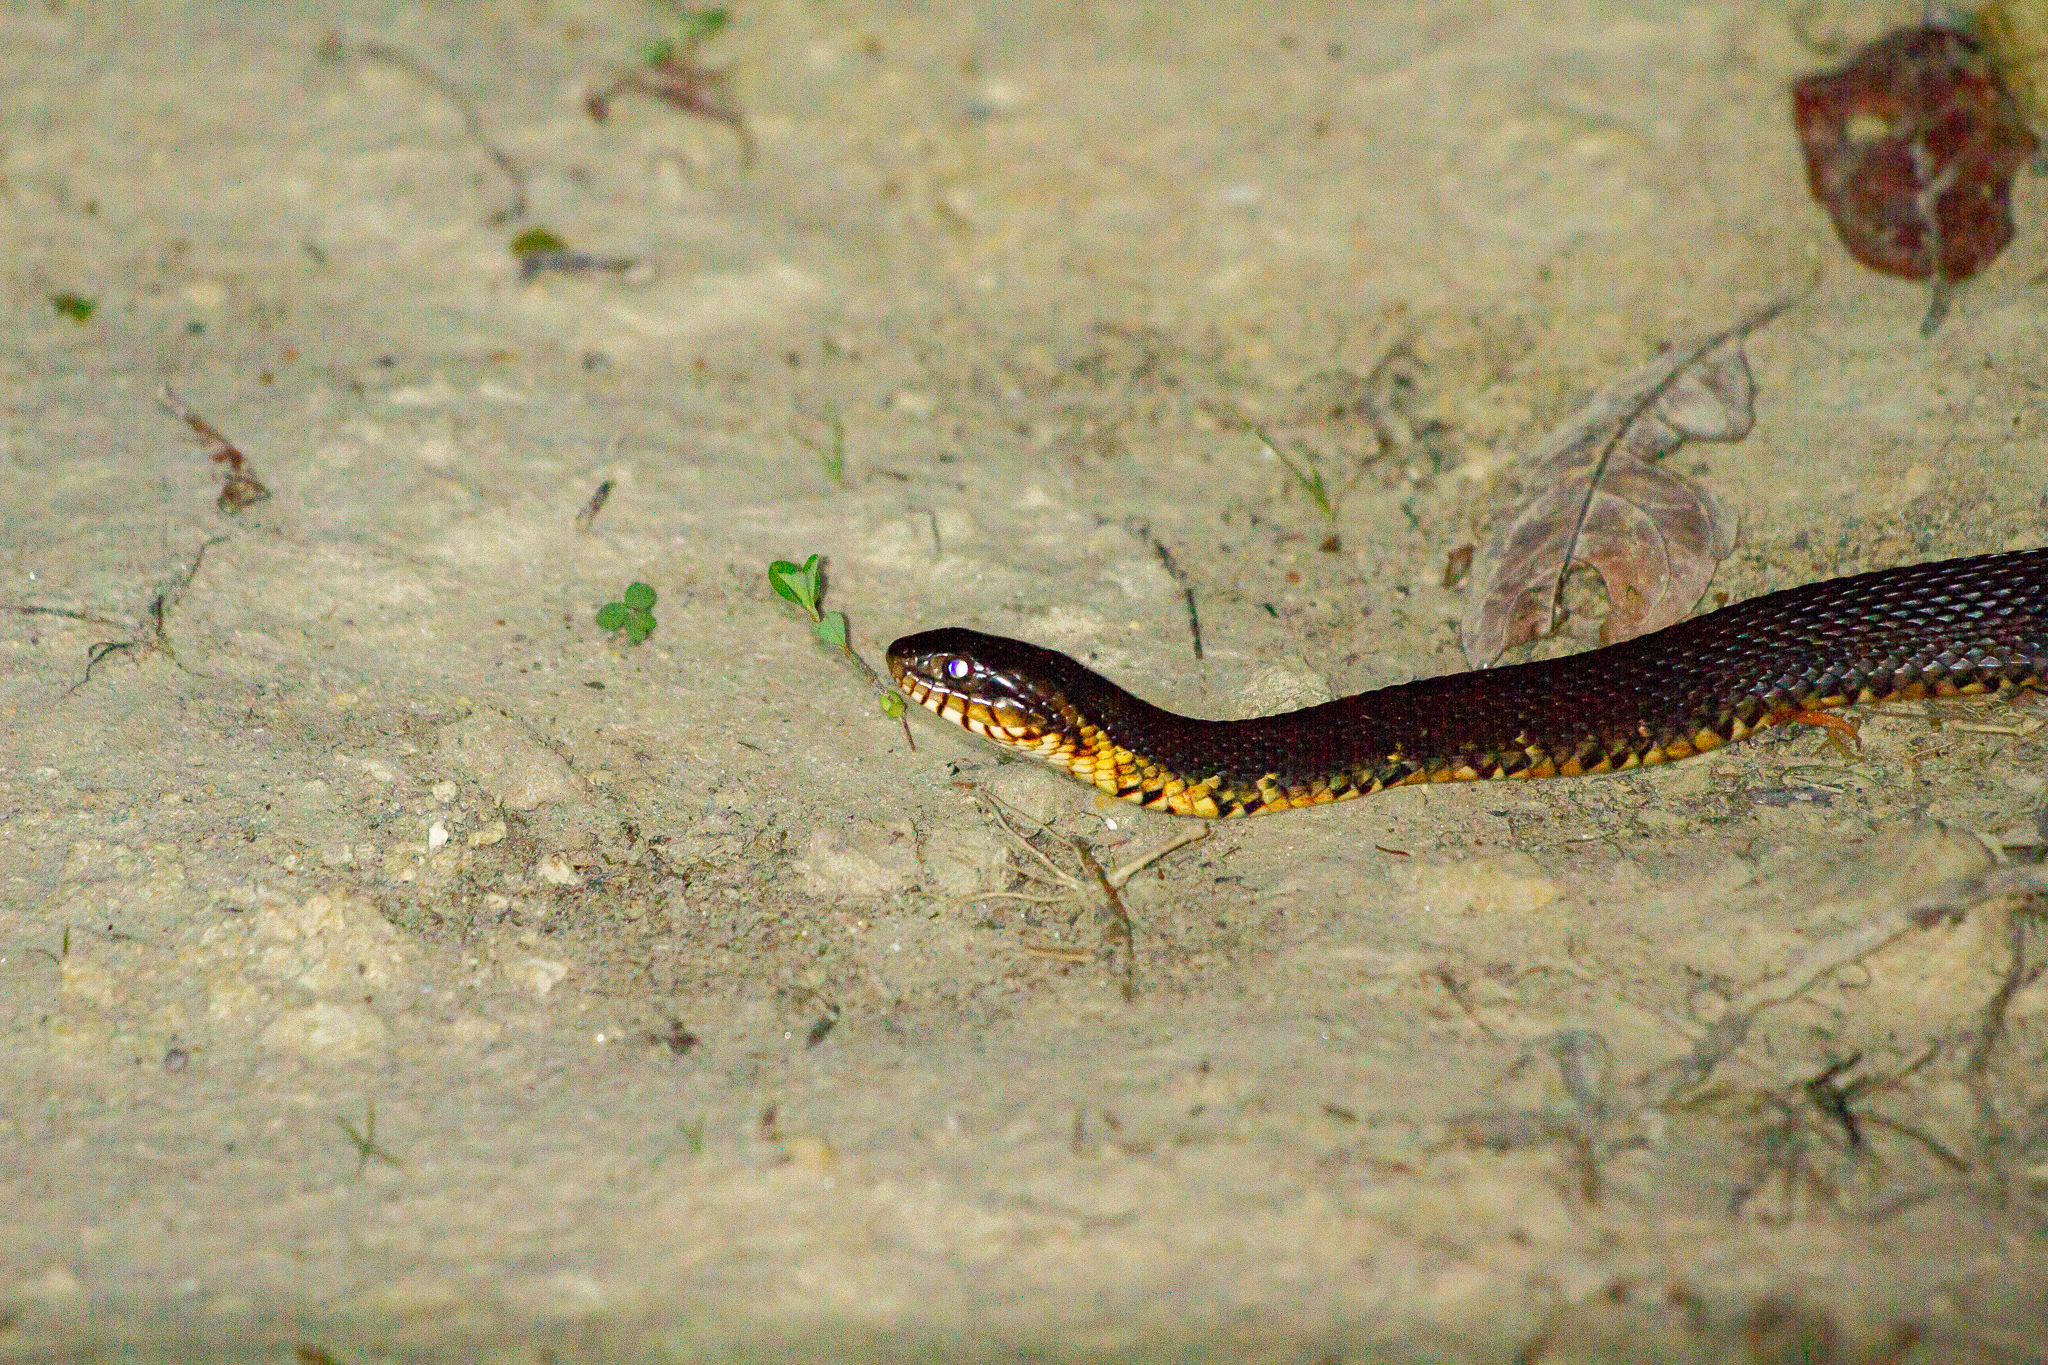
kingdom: Animalia
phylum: Chordata
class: Squamata
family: Colubridae
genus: Nerodia
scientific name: Nerodia
